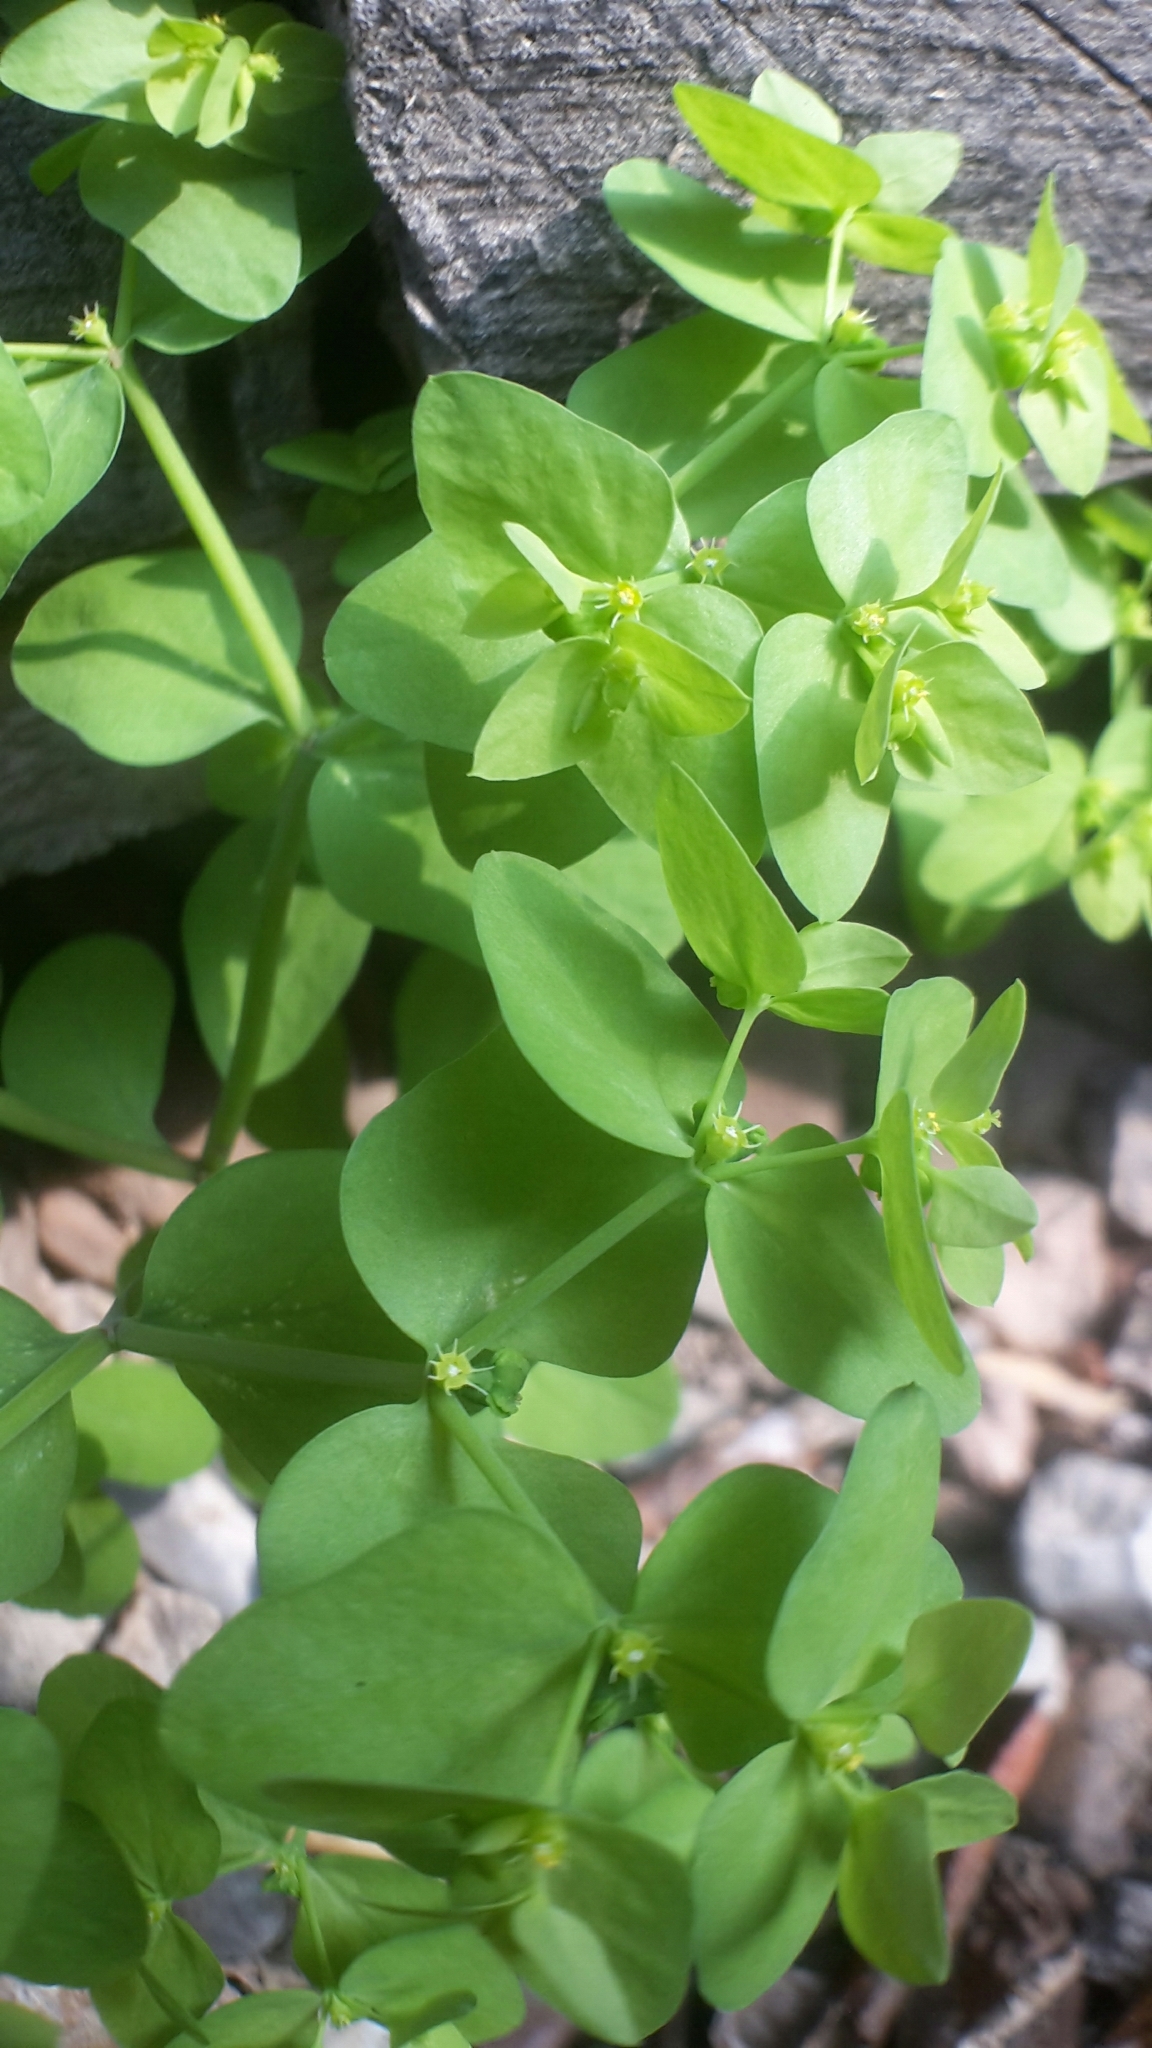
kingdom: Plantae
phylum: Tracheophyta
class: Magnoliopsida
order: Malpighiales
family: Euphorbiaceae
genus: Euphorbia
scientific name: Euphorbia peplus
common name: Petty spurge
